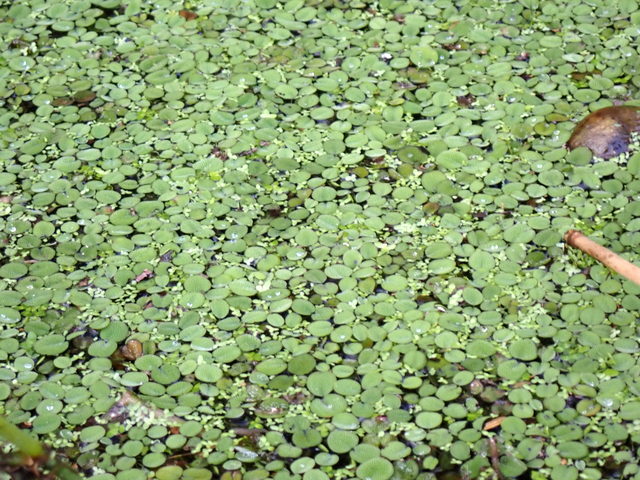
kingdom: Plantae
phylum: Tracheophyta
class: Polypodiopsida
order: Salviniales
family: Salviniaceae
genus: Salvinia
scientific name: Salvinia minima
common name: Water spangles
